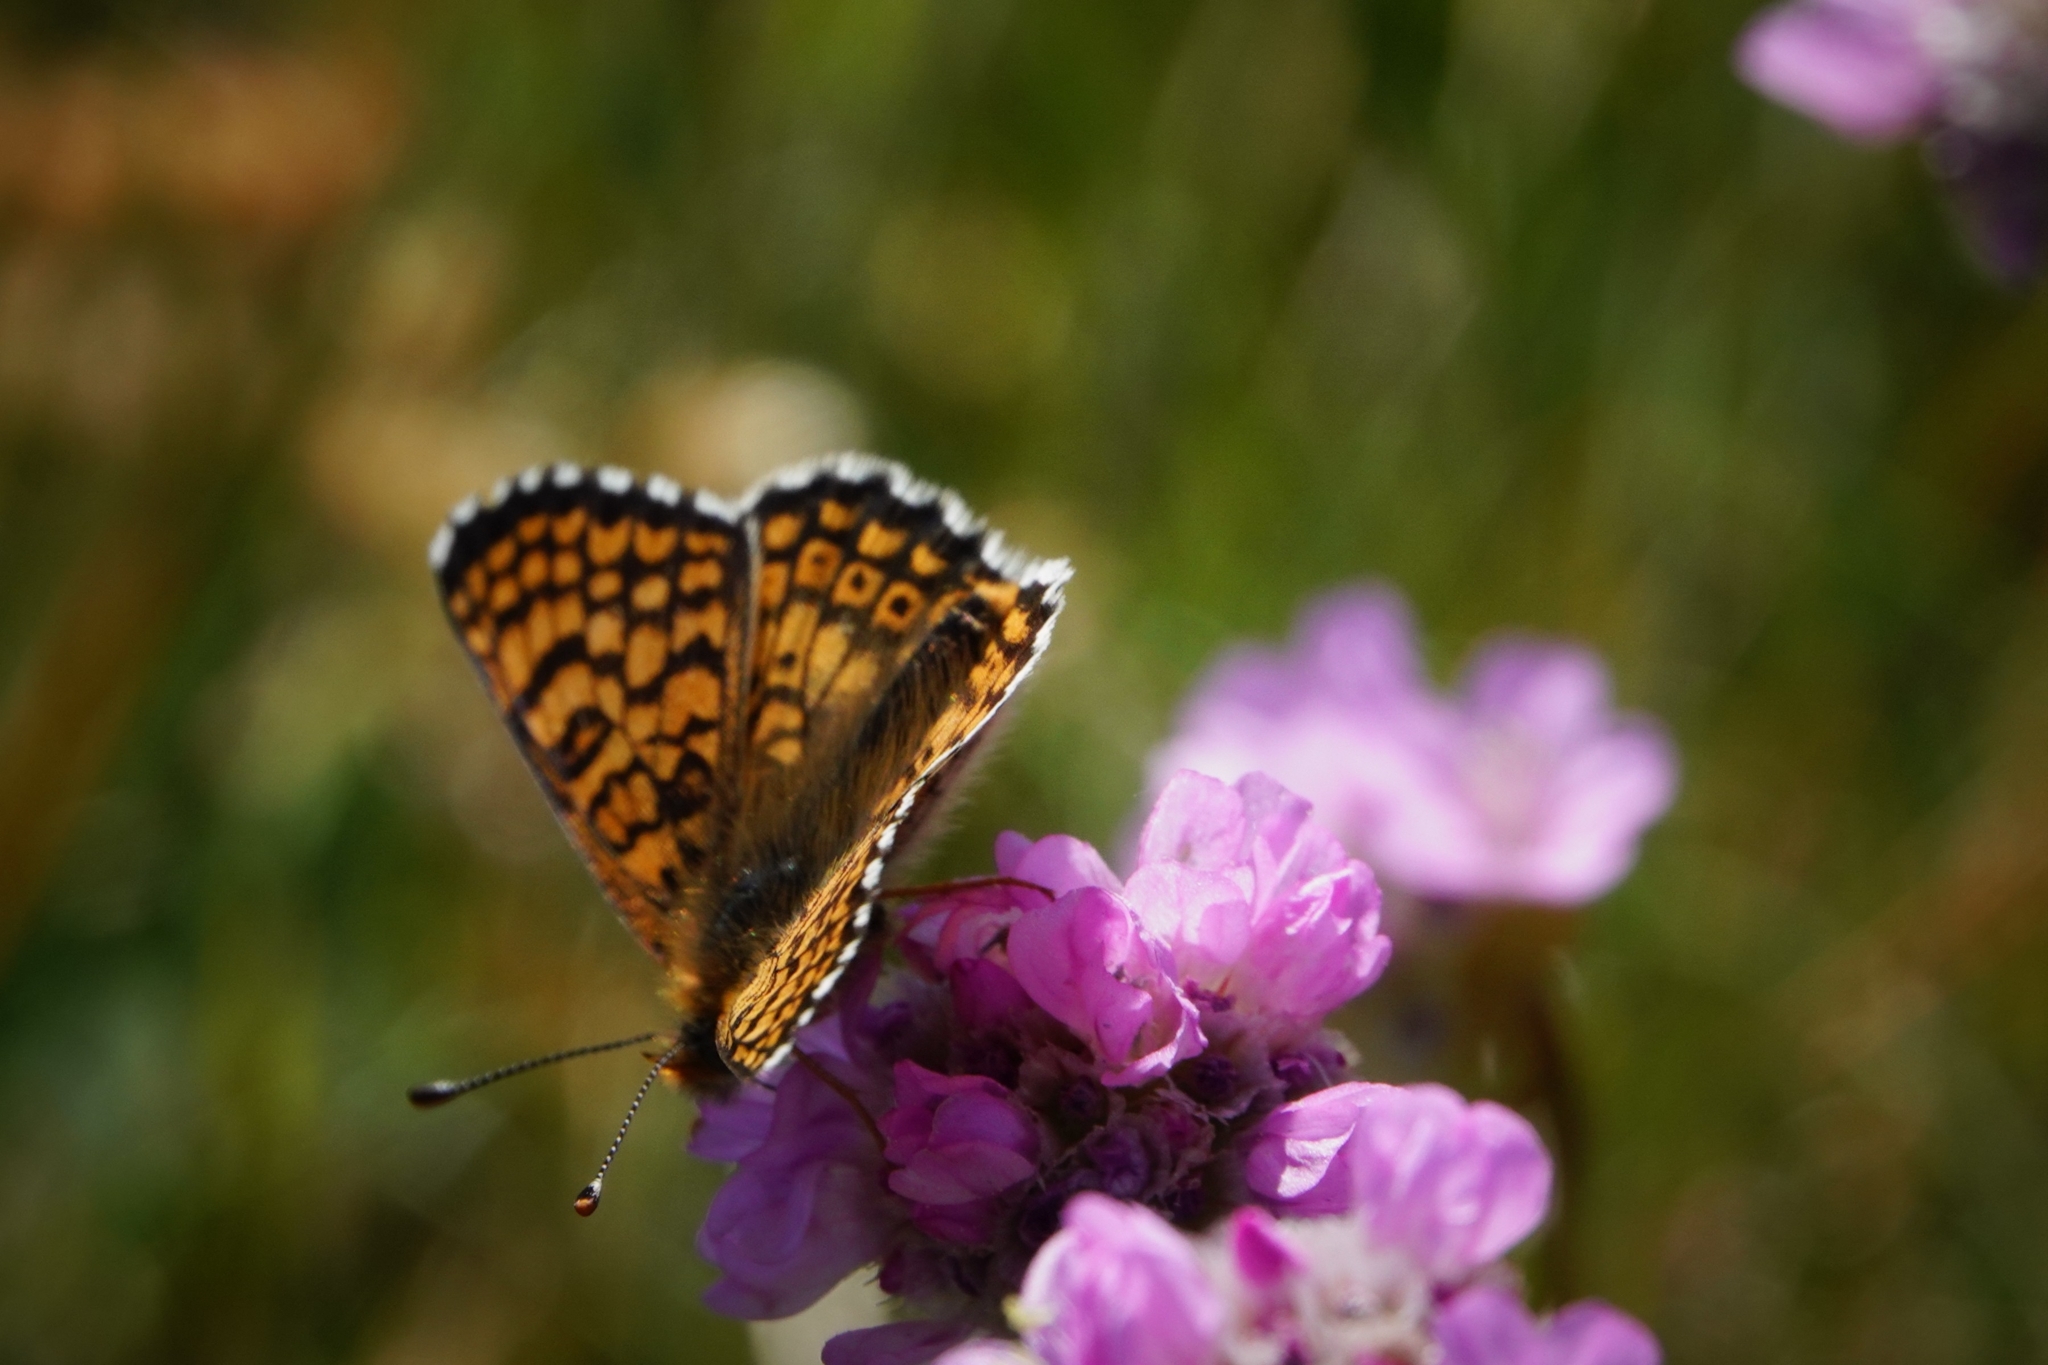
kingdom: Animalia
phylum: Arthropoda
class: Insecta
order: Lepidoptera
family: Nymphalidae
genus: Melitaea
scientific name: Melitaea cinxia
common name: Glanville fritillary
